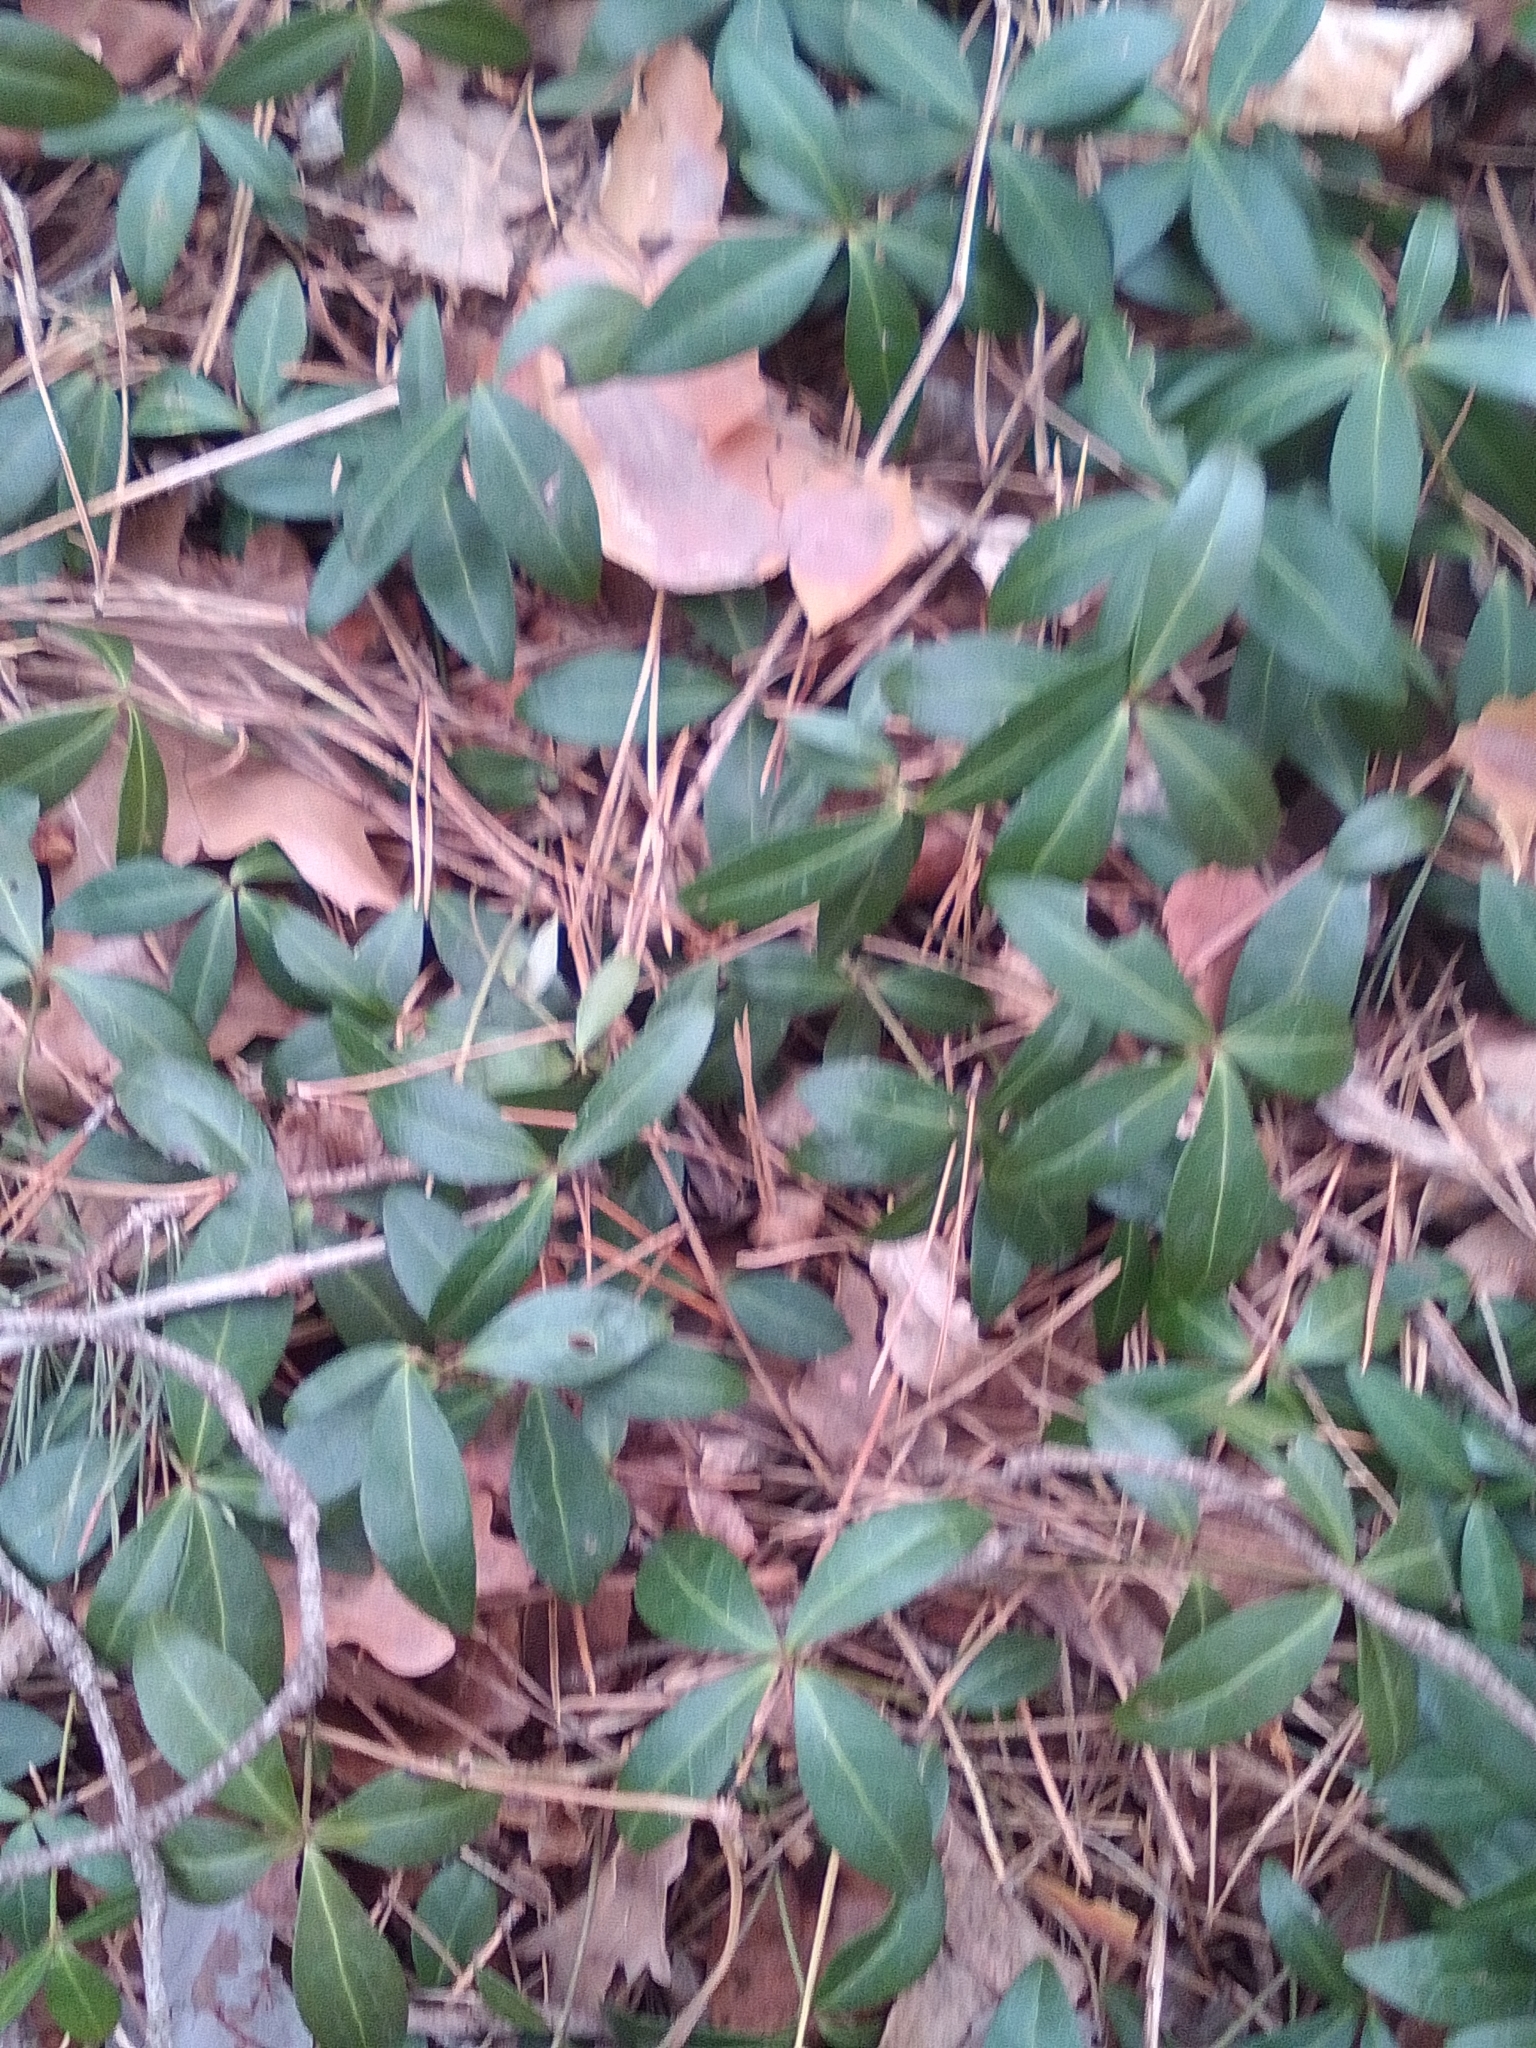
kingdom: Plantae
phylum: Tracheophyta
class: Magnoliopsida
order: Gentianales
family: Apocynaceae
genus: Vinca
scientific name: Vinca minor
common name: Lesser periwinkle
